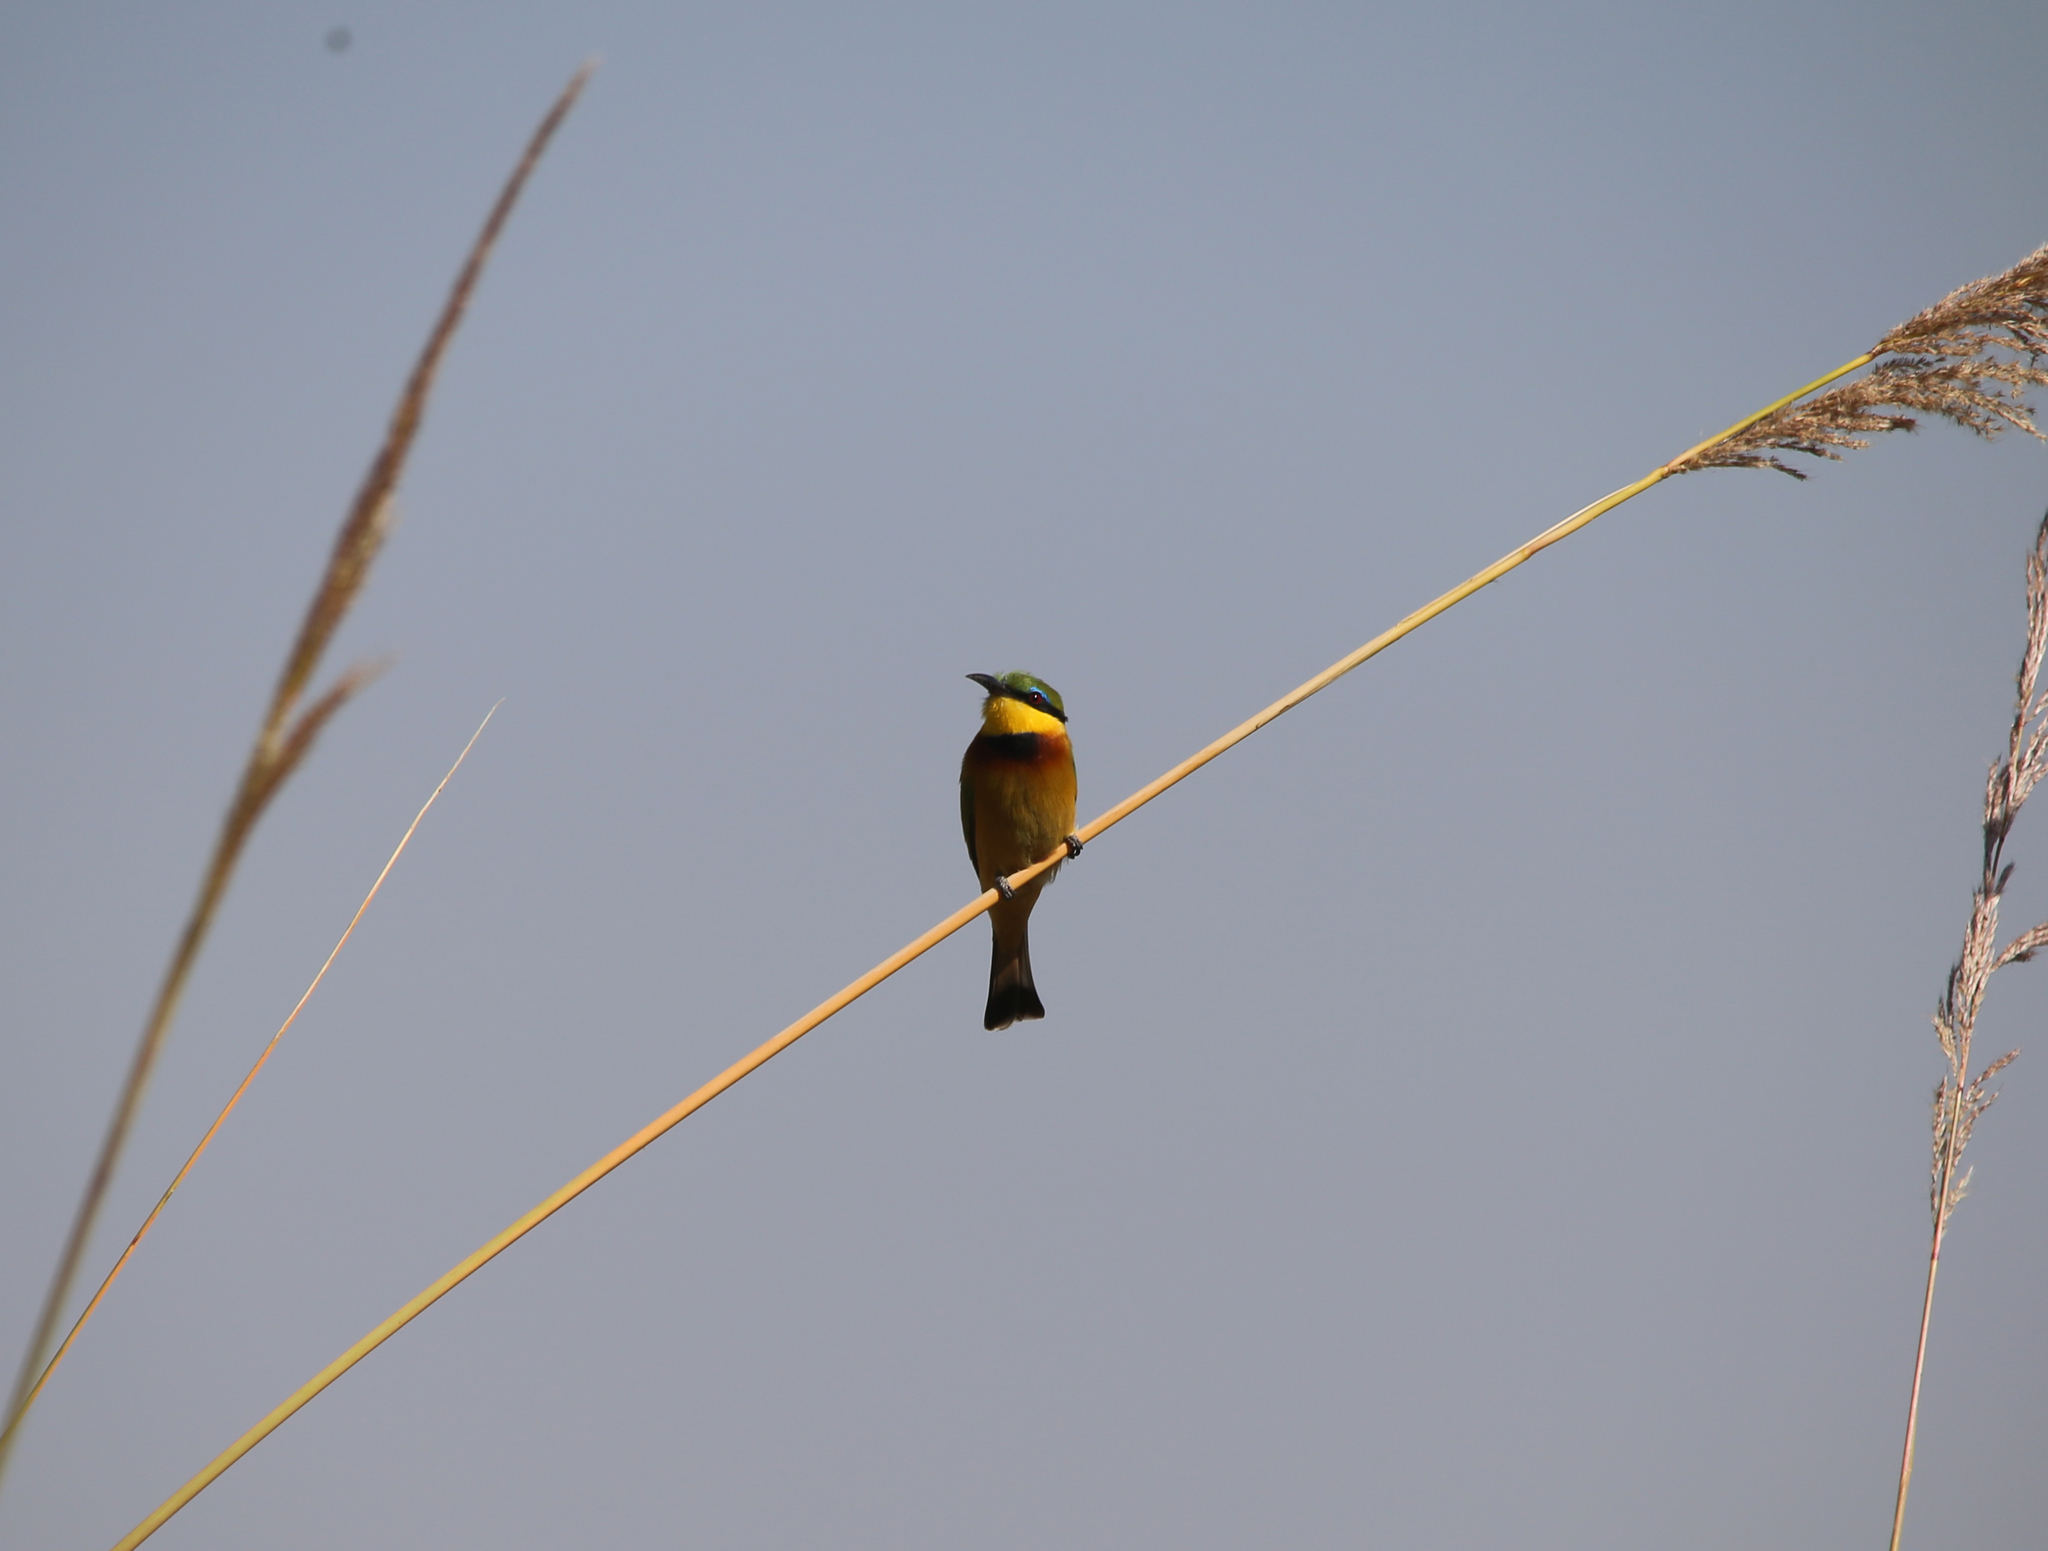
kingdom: Animalia
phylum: Chordata
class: Aves
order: Coraciiformes
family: Meropidae
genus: Merops
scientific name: Merops pusillus
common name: Little bee-eater
